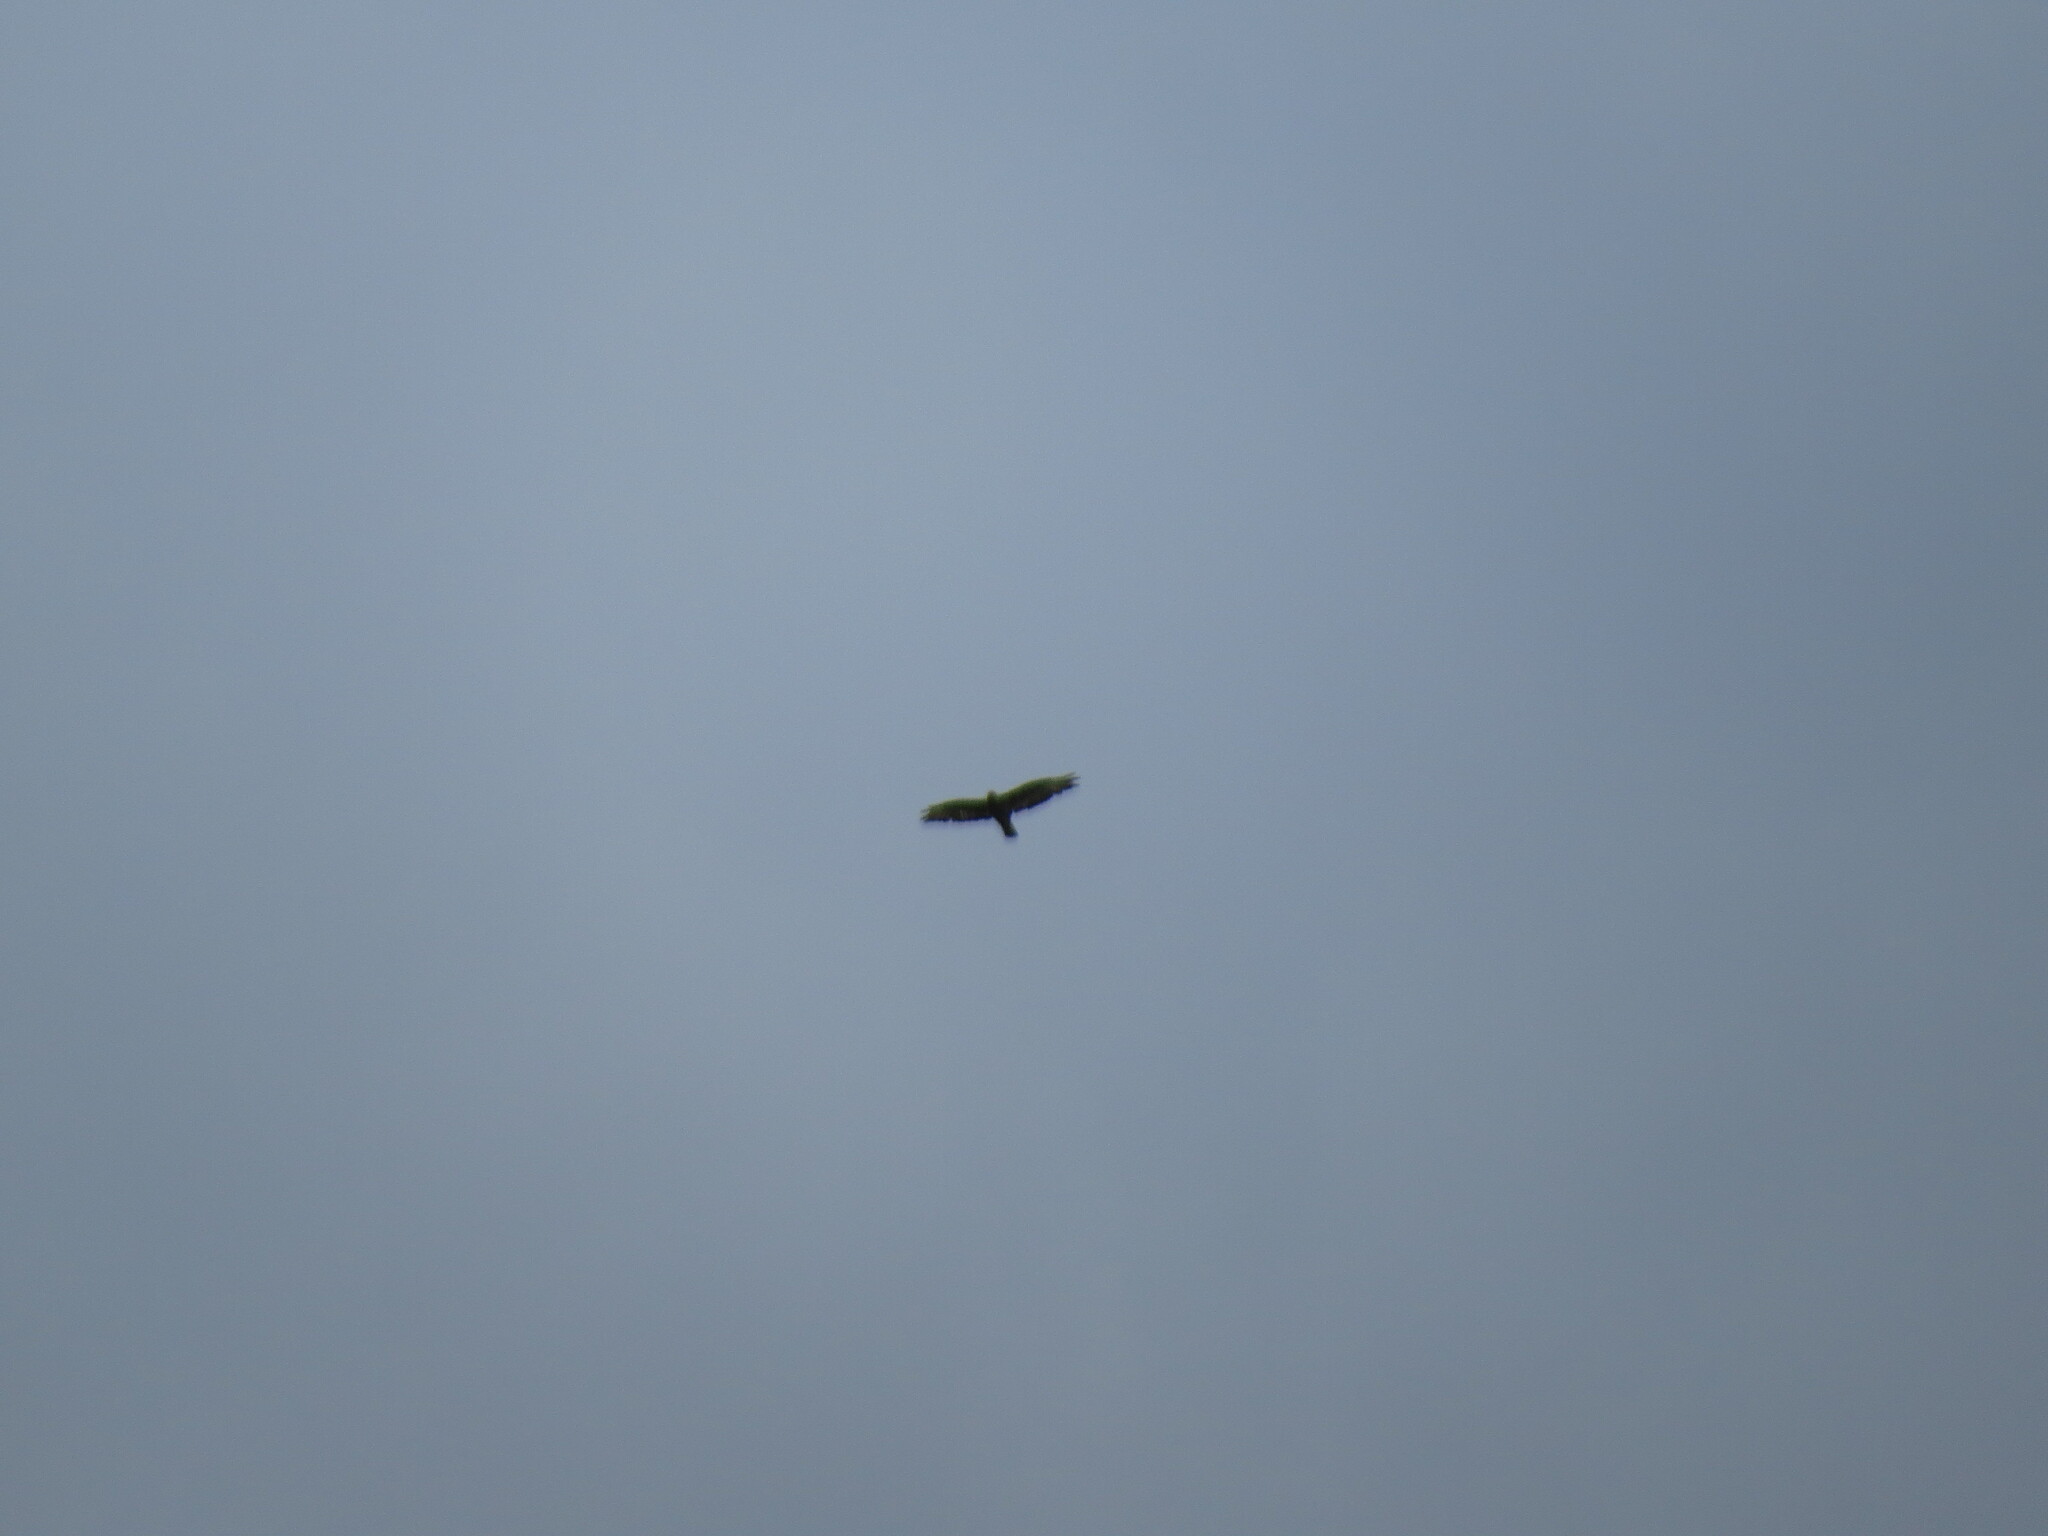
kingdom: Animalia
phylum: Chordata
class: Aves
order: Accipitriformes
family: Accipitridae
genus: Buteo
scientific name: Buteo buteo
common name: Common buzzard
